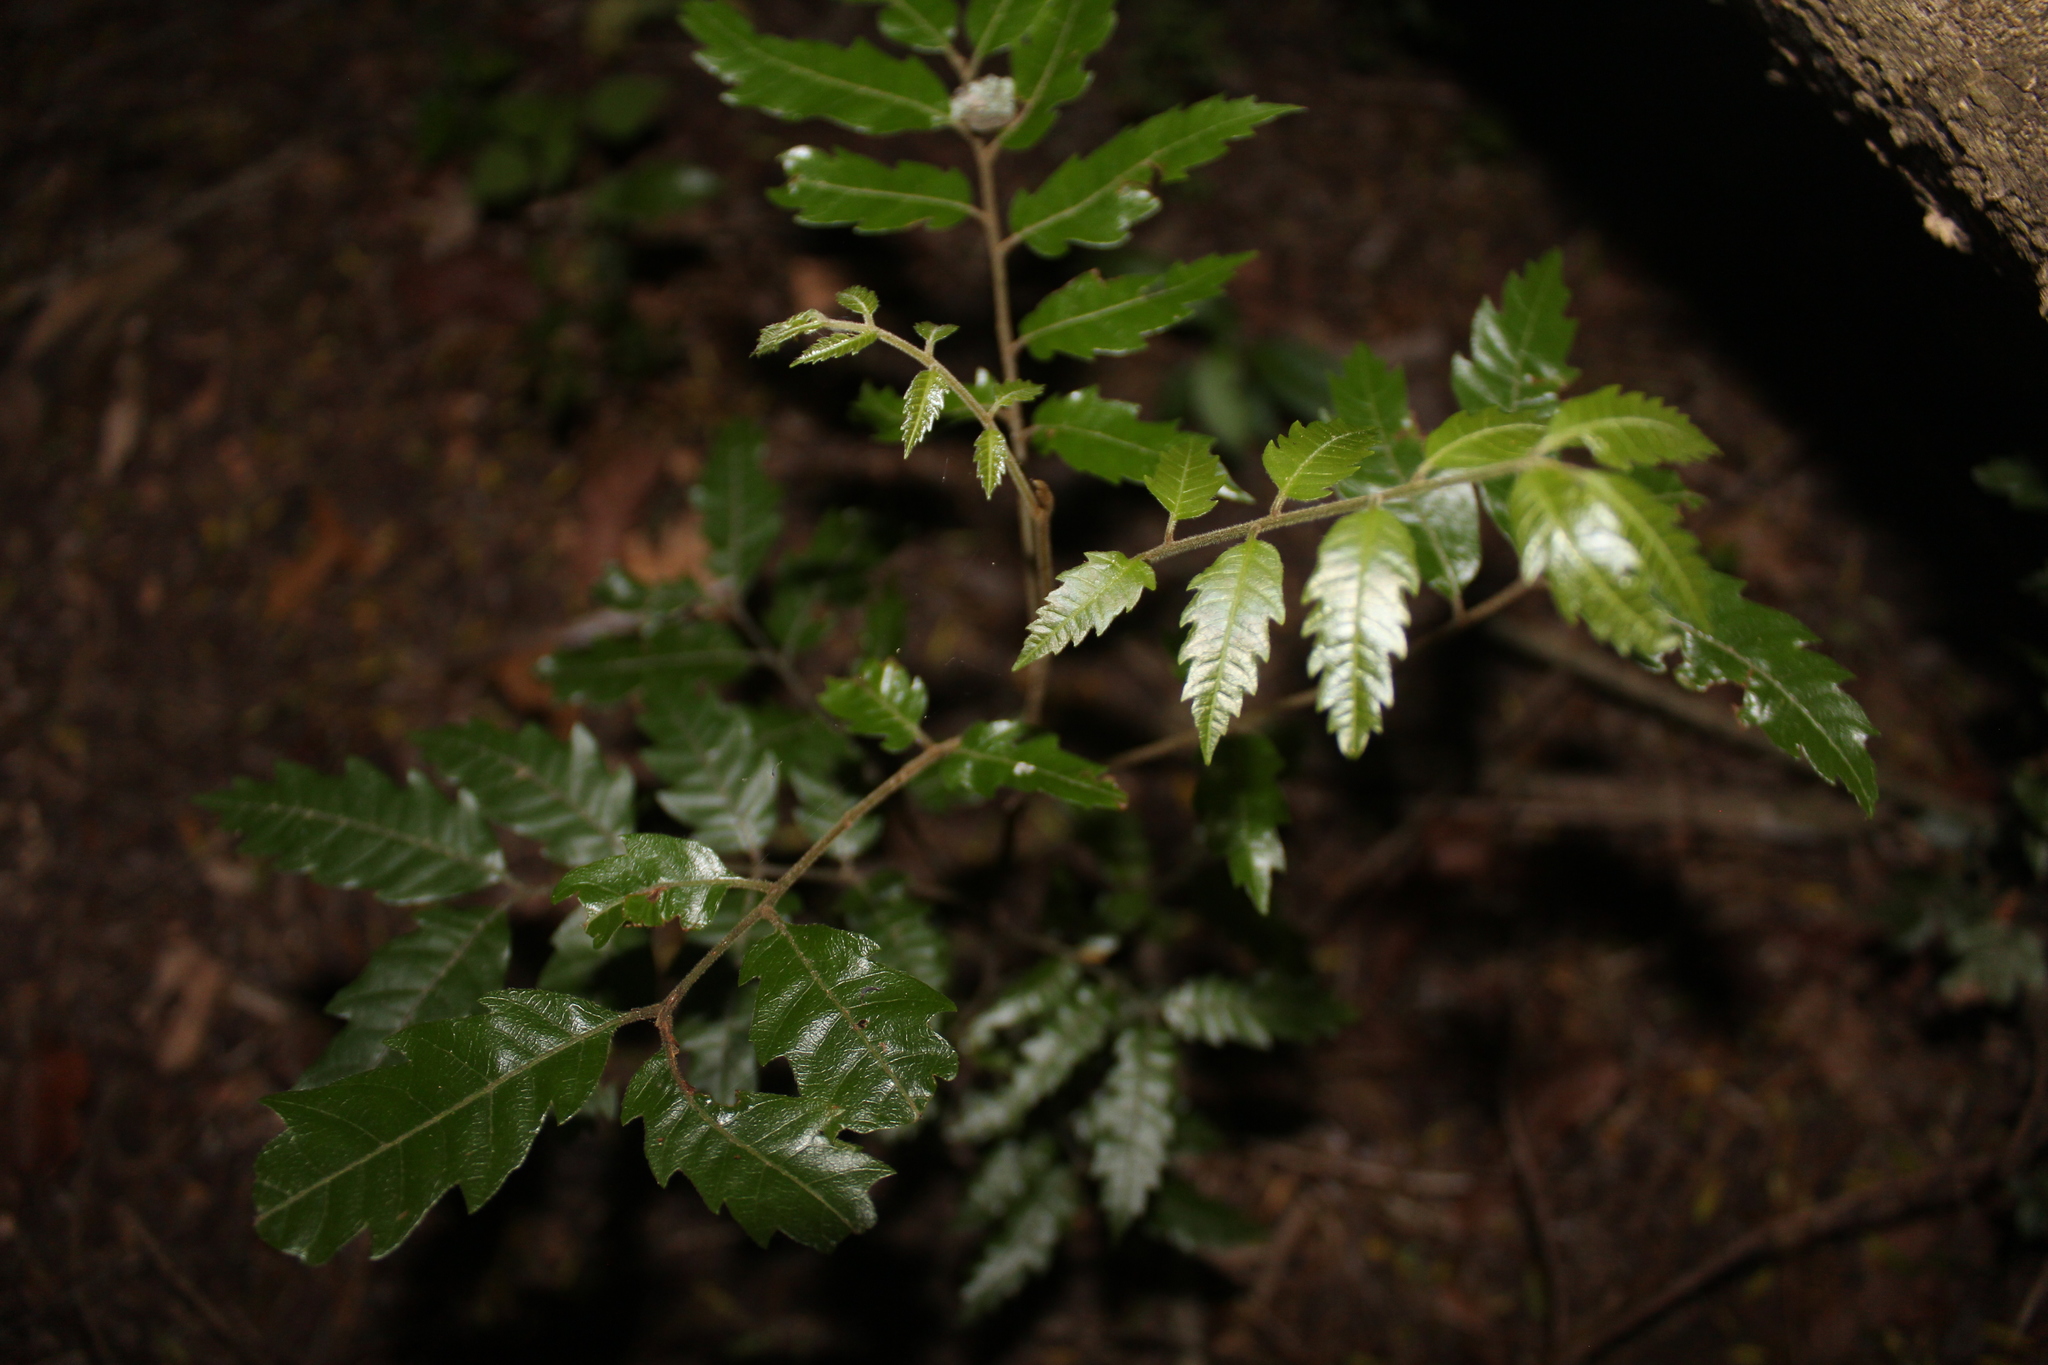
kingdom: Plantae
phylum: Tracheophyta
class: Magnoliopsida
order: Sapindales
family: Sapindaceae
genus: Alectryon
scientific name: Alectryon excelsus
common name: Three kings titoki
